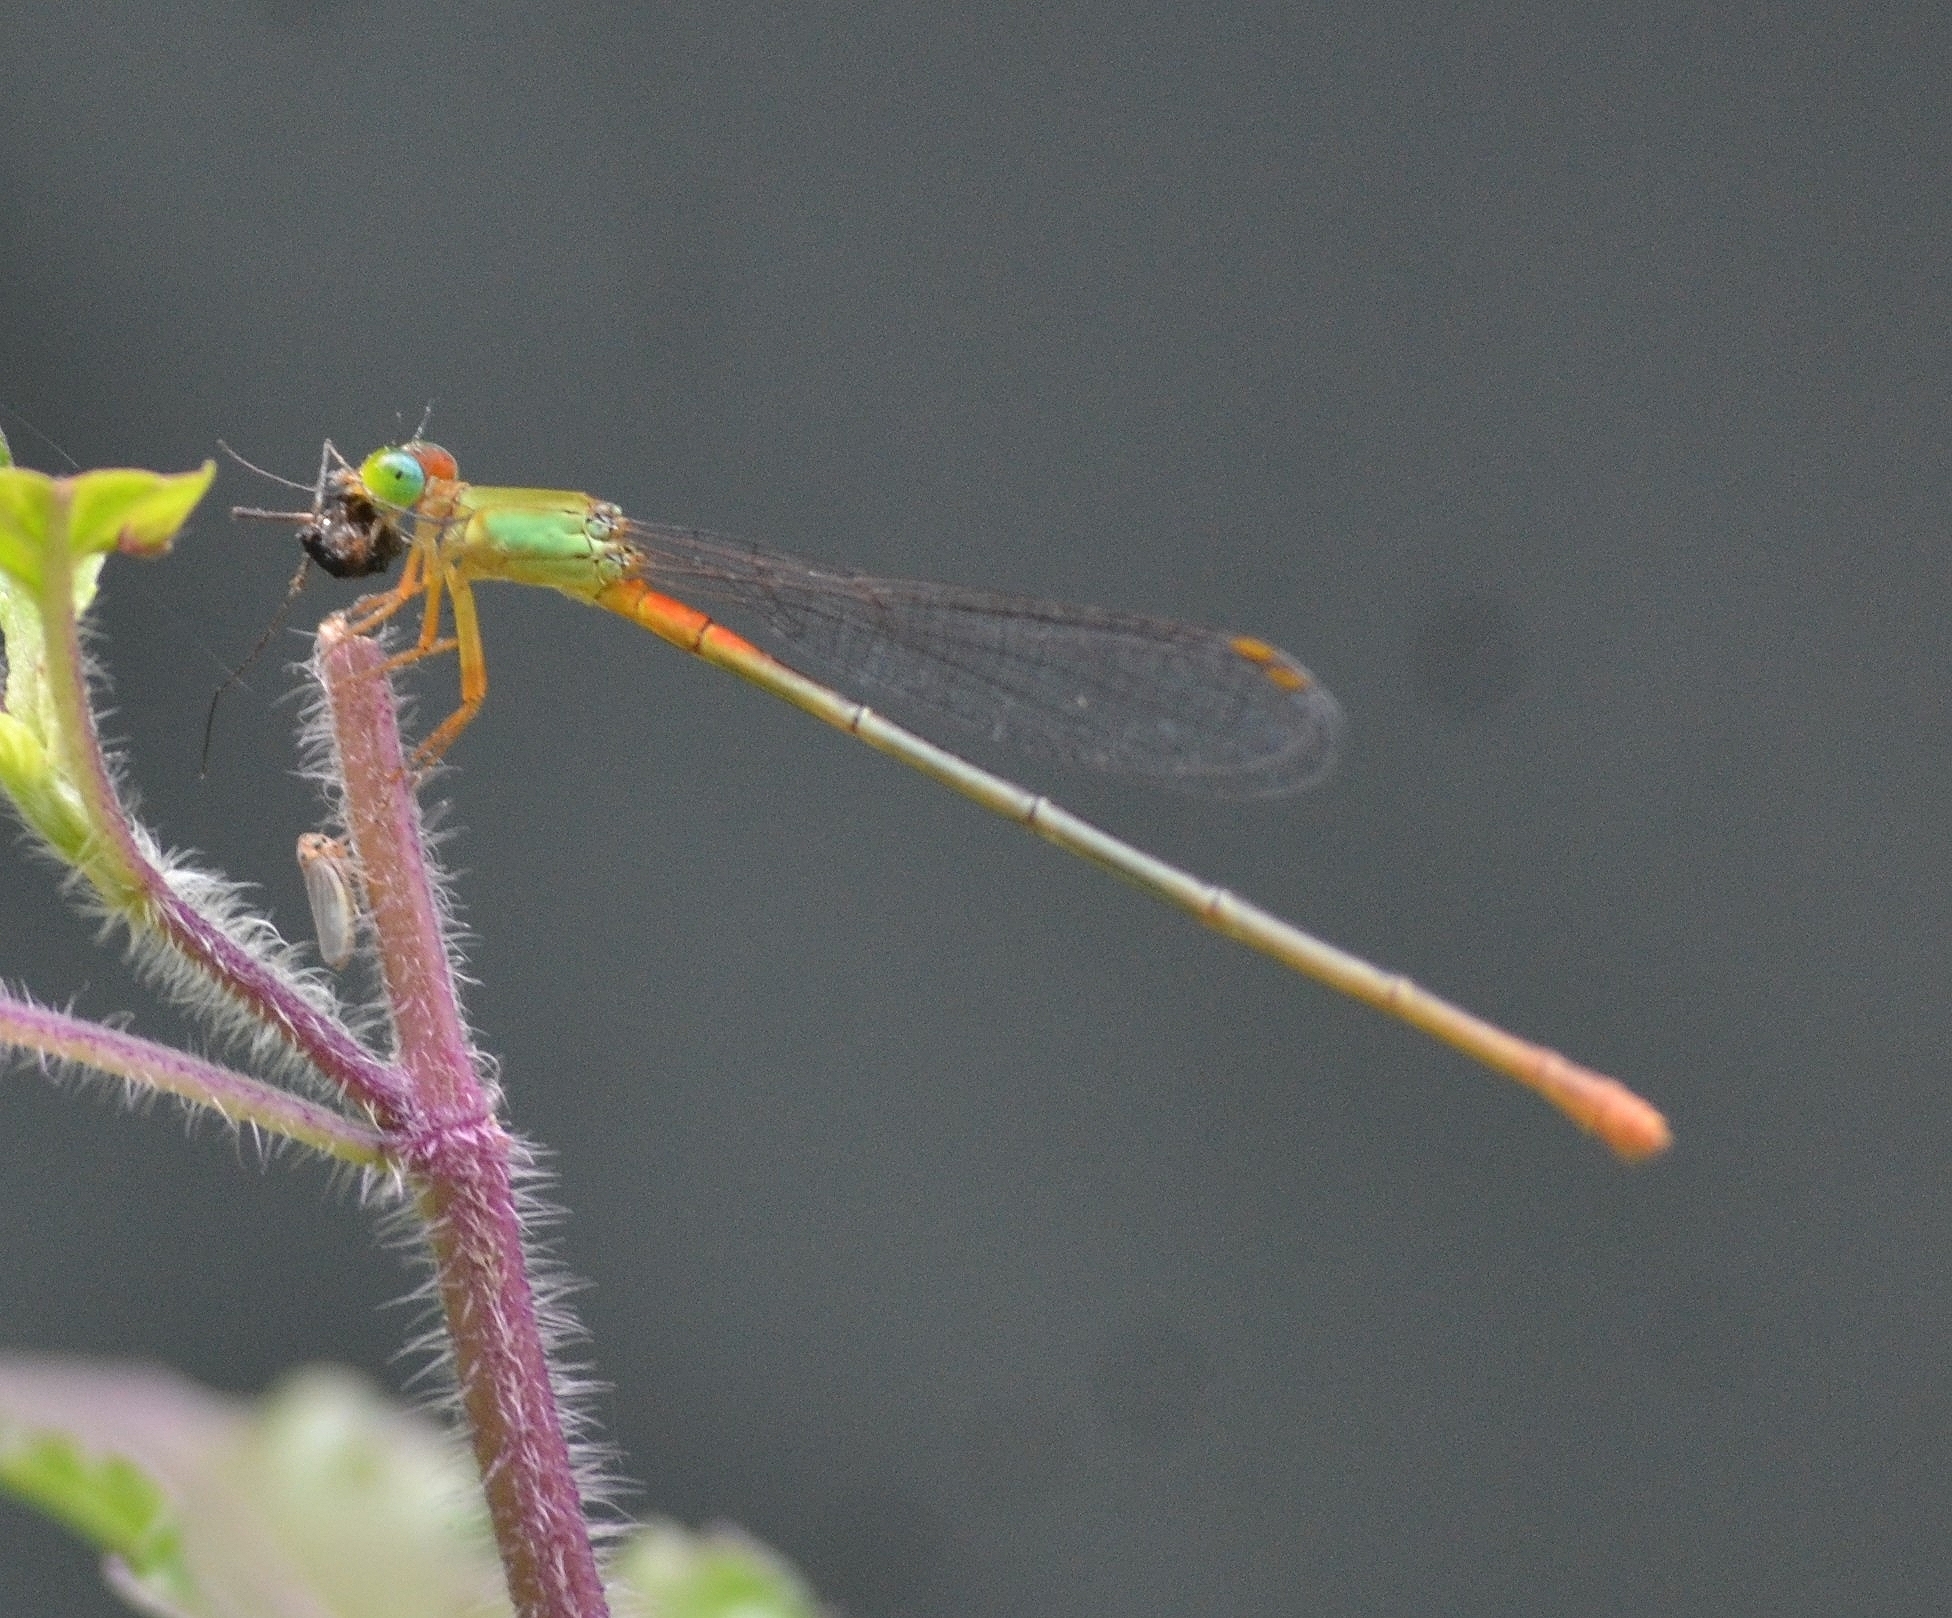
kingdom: Animalia
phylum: Arthropoda
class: Insecta
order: Odonata
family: Coenagrionidae
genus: Ceriagrion
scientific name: Ceriagrion cerinorubellum
